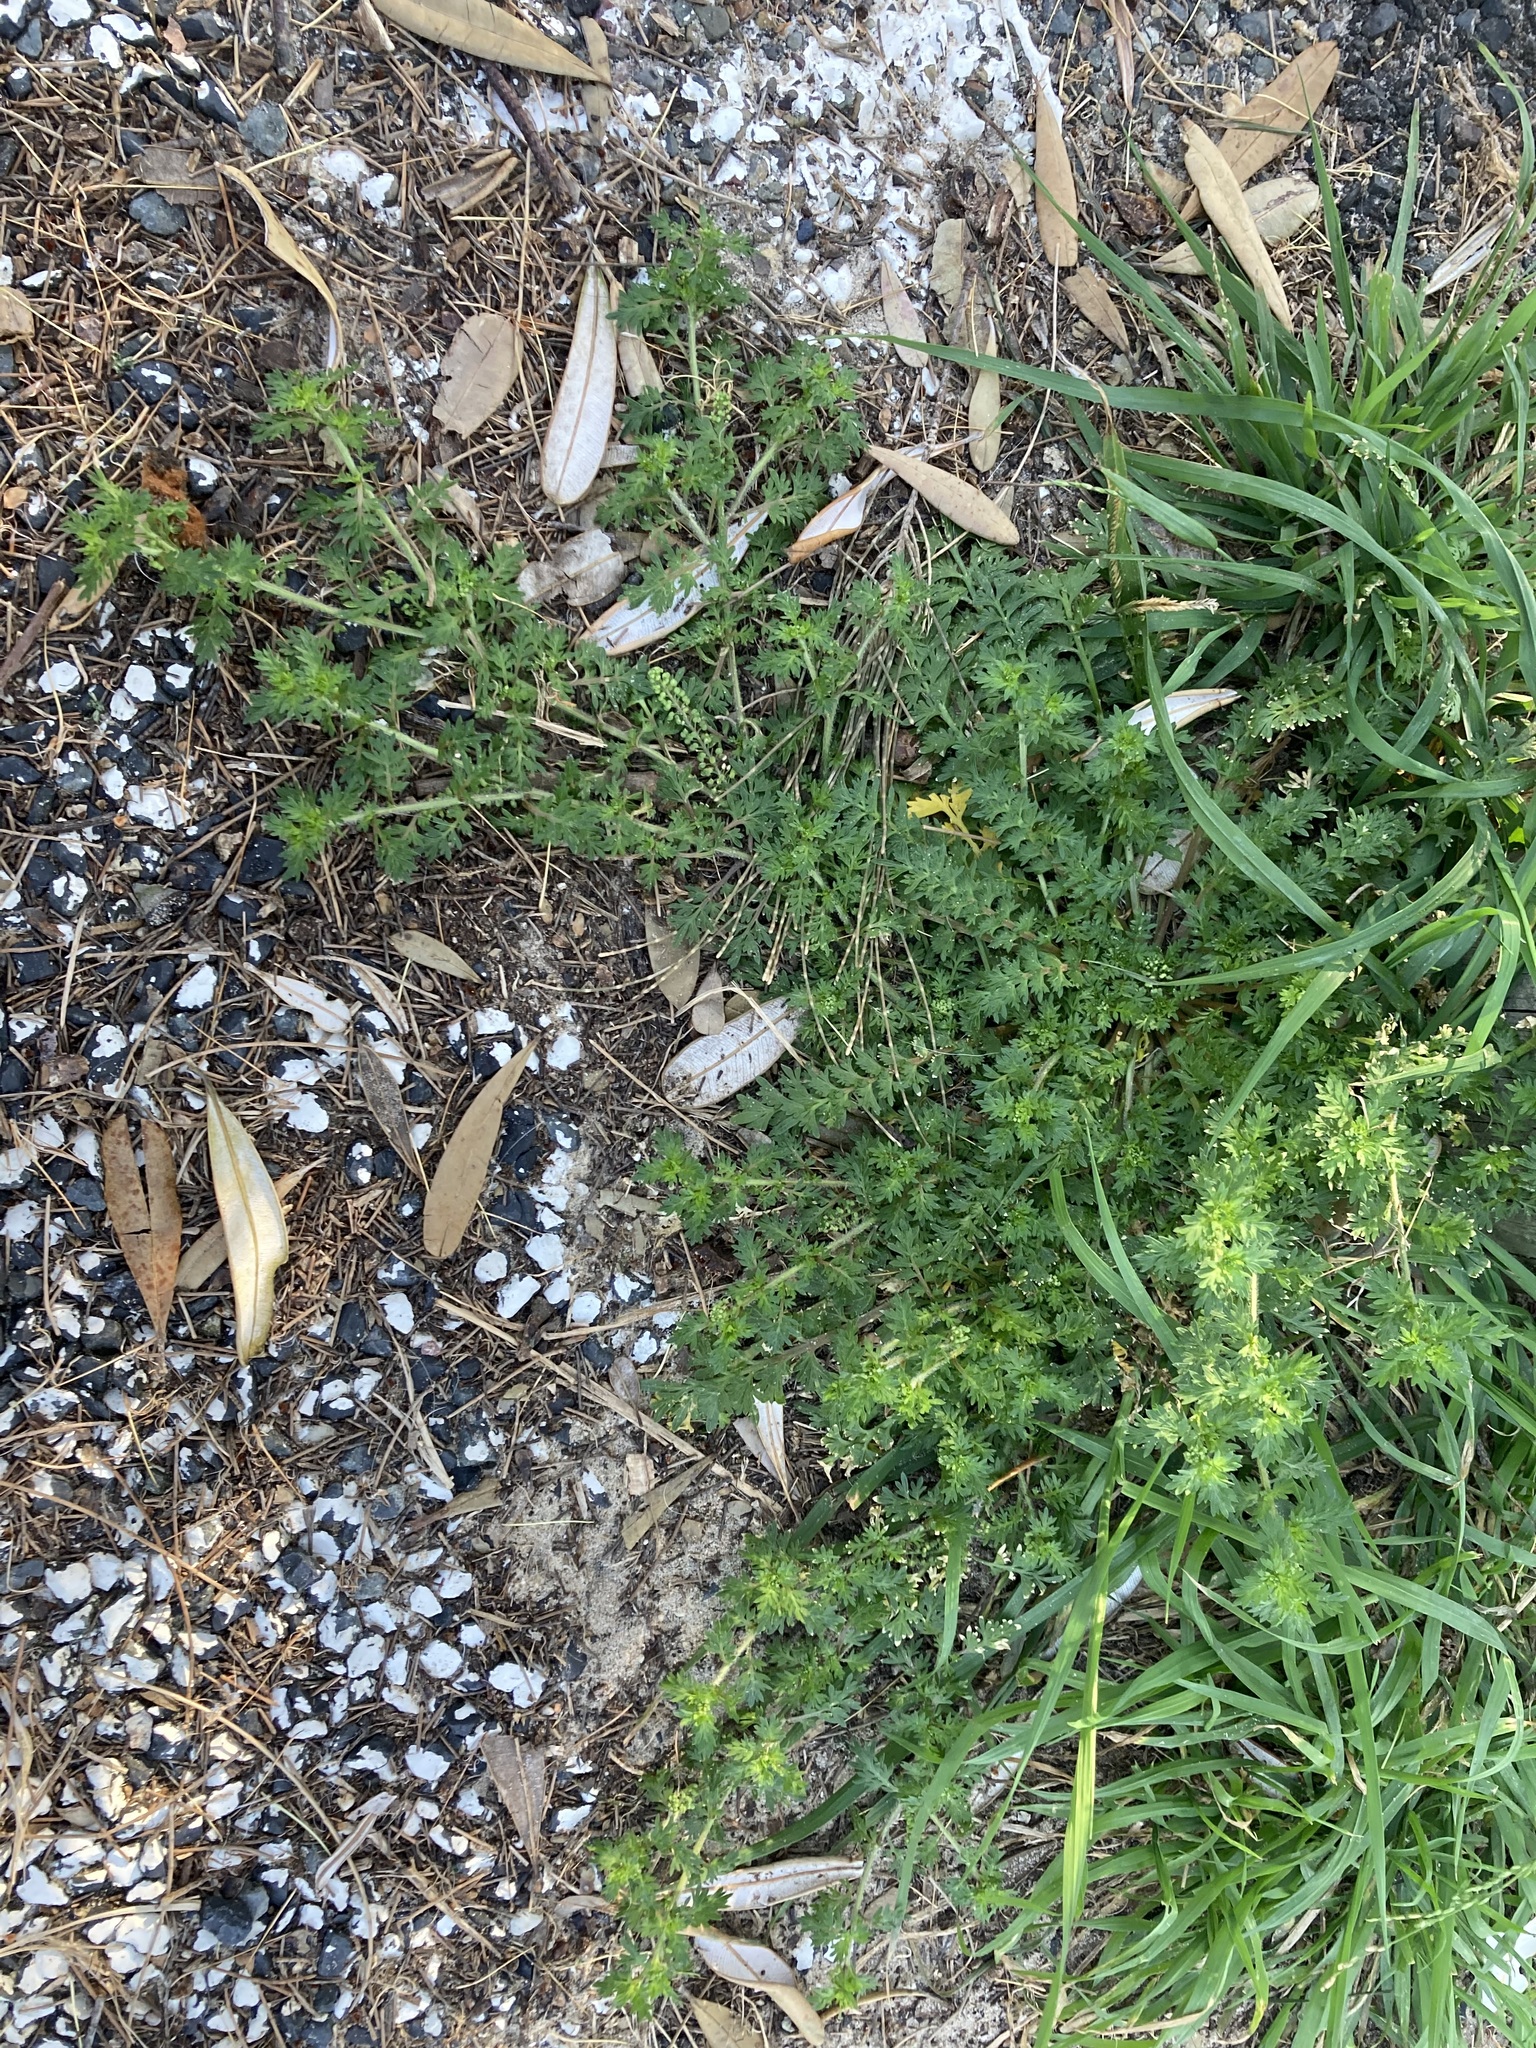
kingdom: Plantae
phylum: Tracheophyta
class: Magnoliopsida
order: Brassicales
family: Brassicaceae
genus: Lepidium
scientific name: Lepidium didymum
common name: Lesser swinecress
